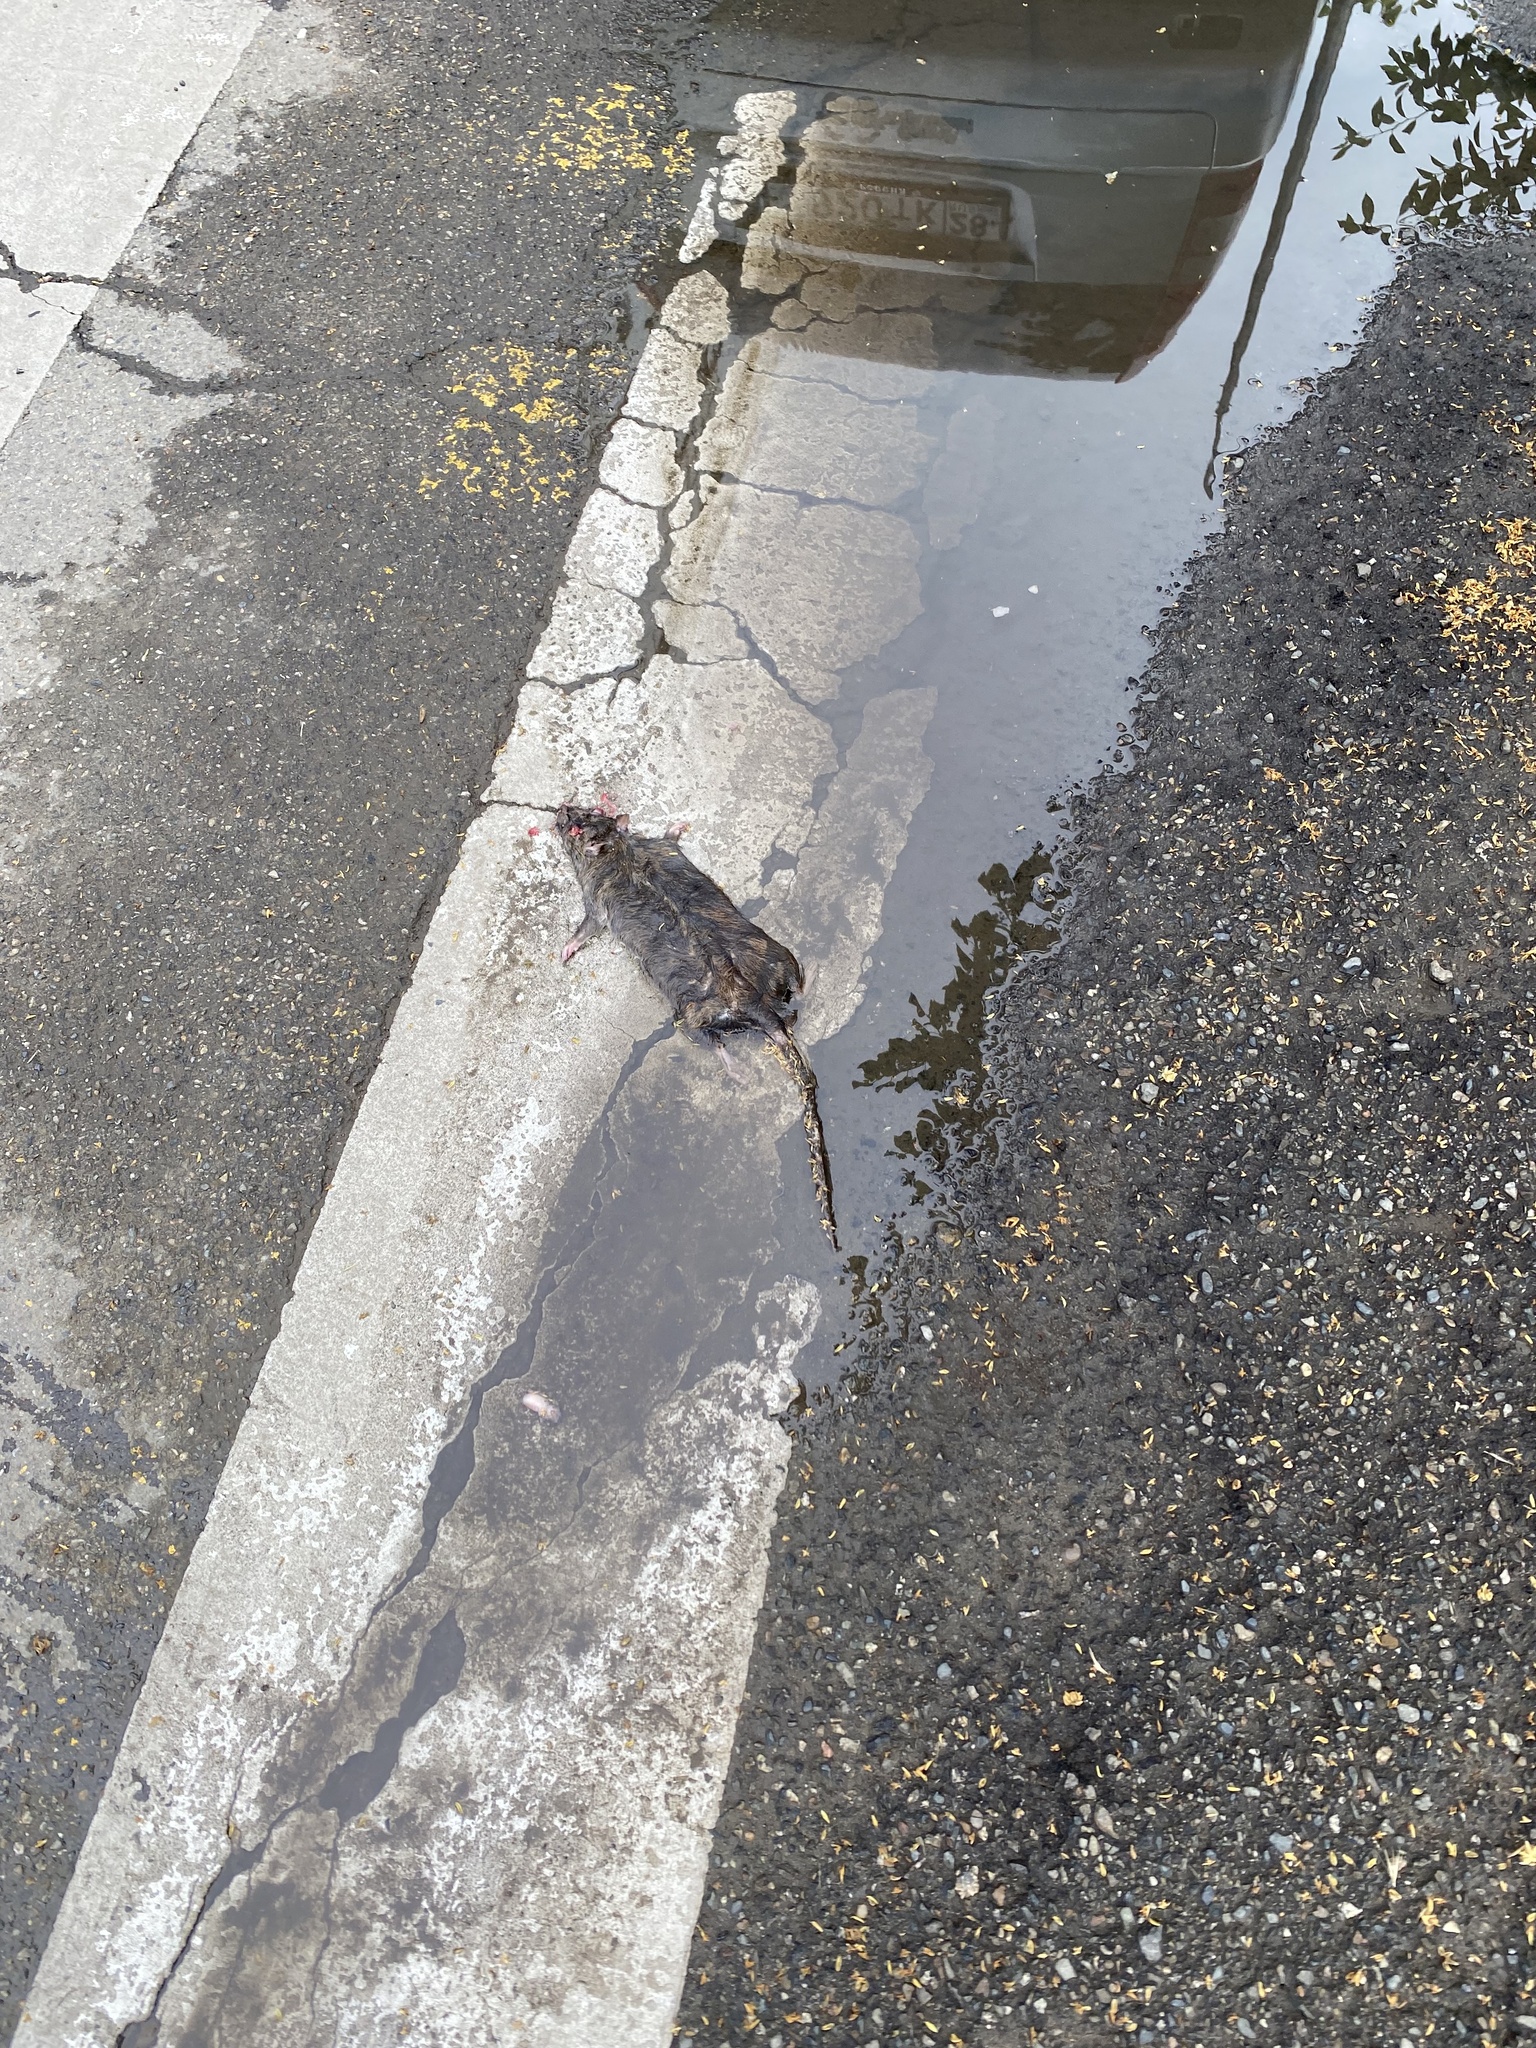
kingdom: Animalia
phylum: Chordata
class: Mammalia
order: Rodentia
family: Muridae
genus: Rattus
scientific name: Rattus norvegicus
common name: Brown rat
